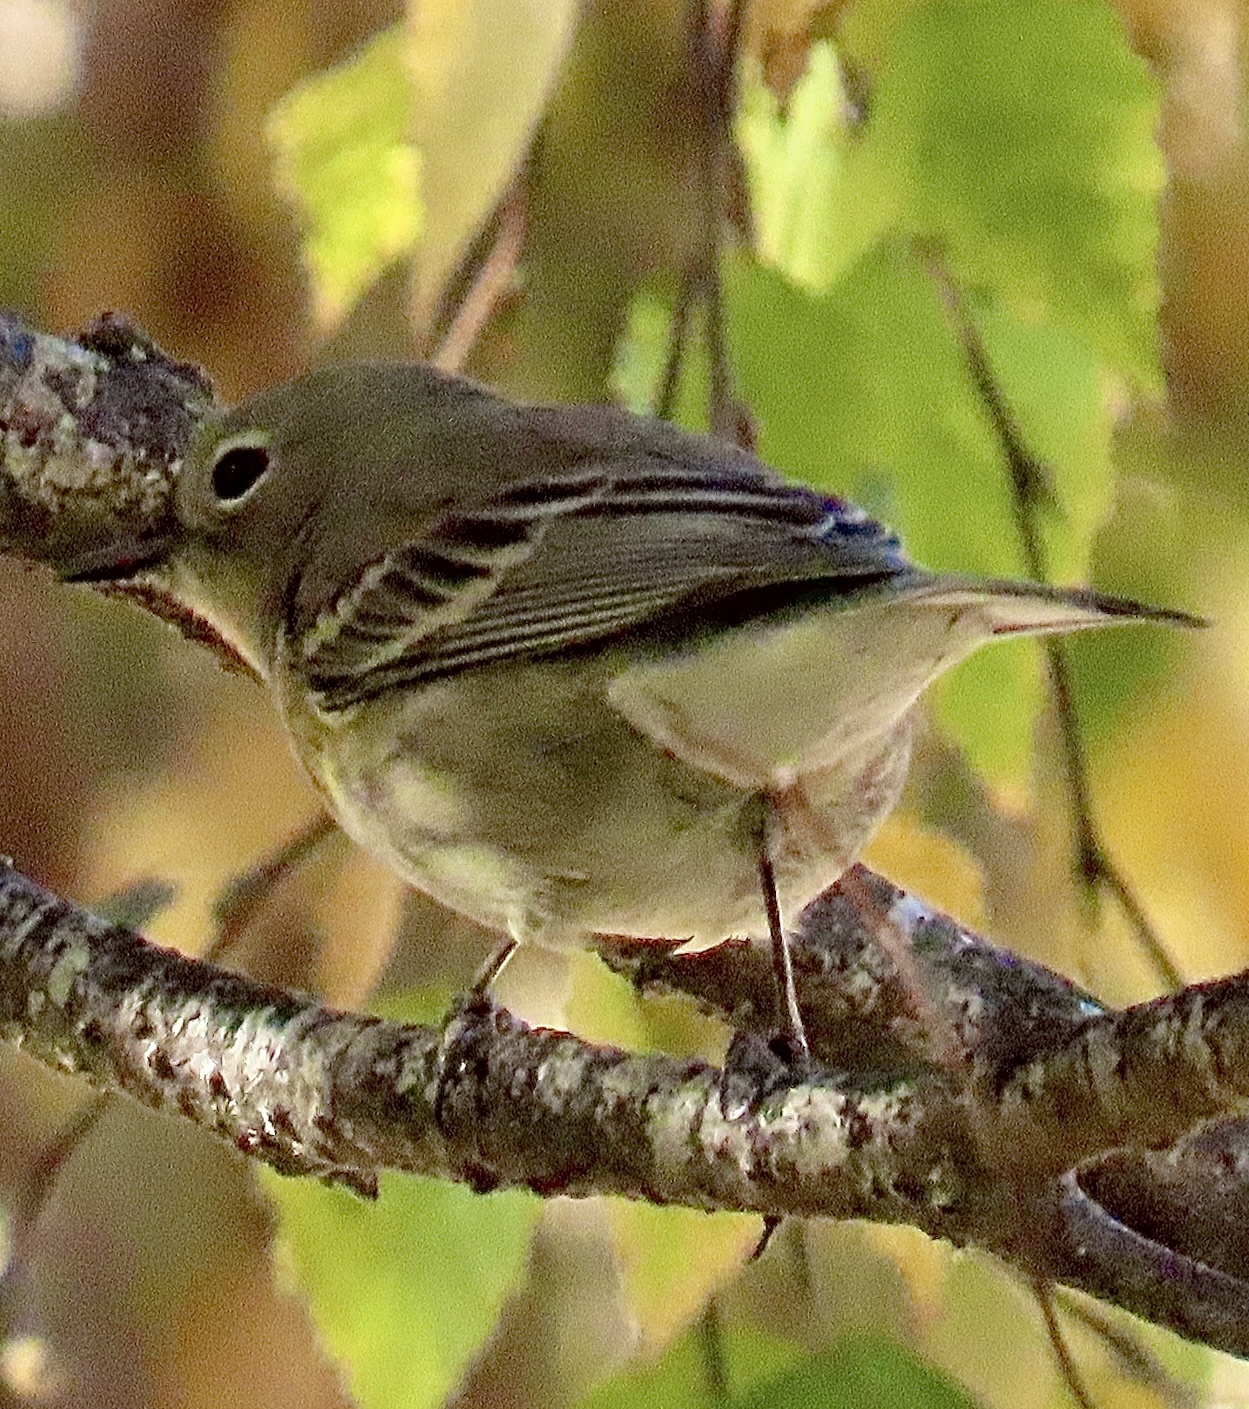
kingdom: Animalia
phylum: Chordata
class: Aves
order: Passeriformes
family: Parulidae
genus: Setophaga
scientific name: Setophaga coronata
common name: Myrtle warbler
